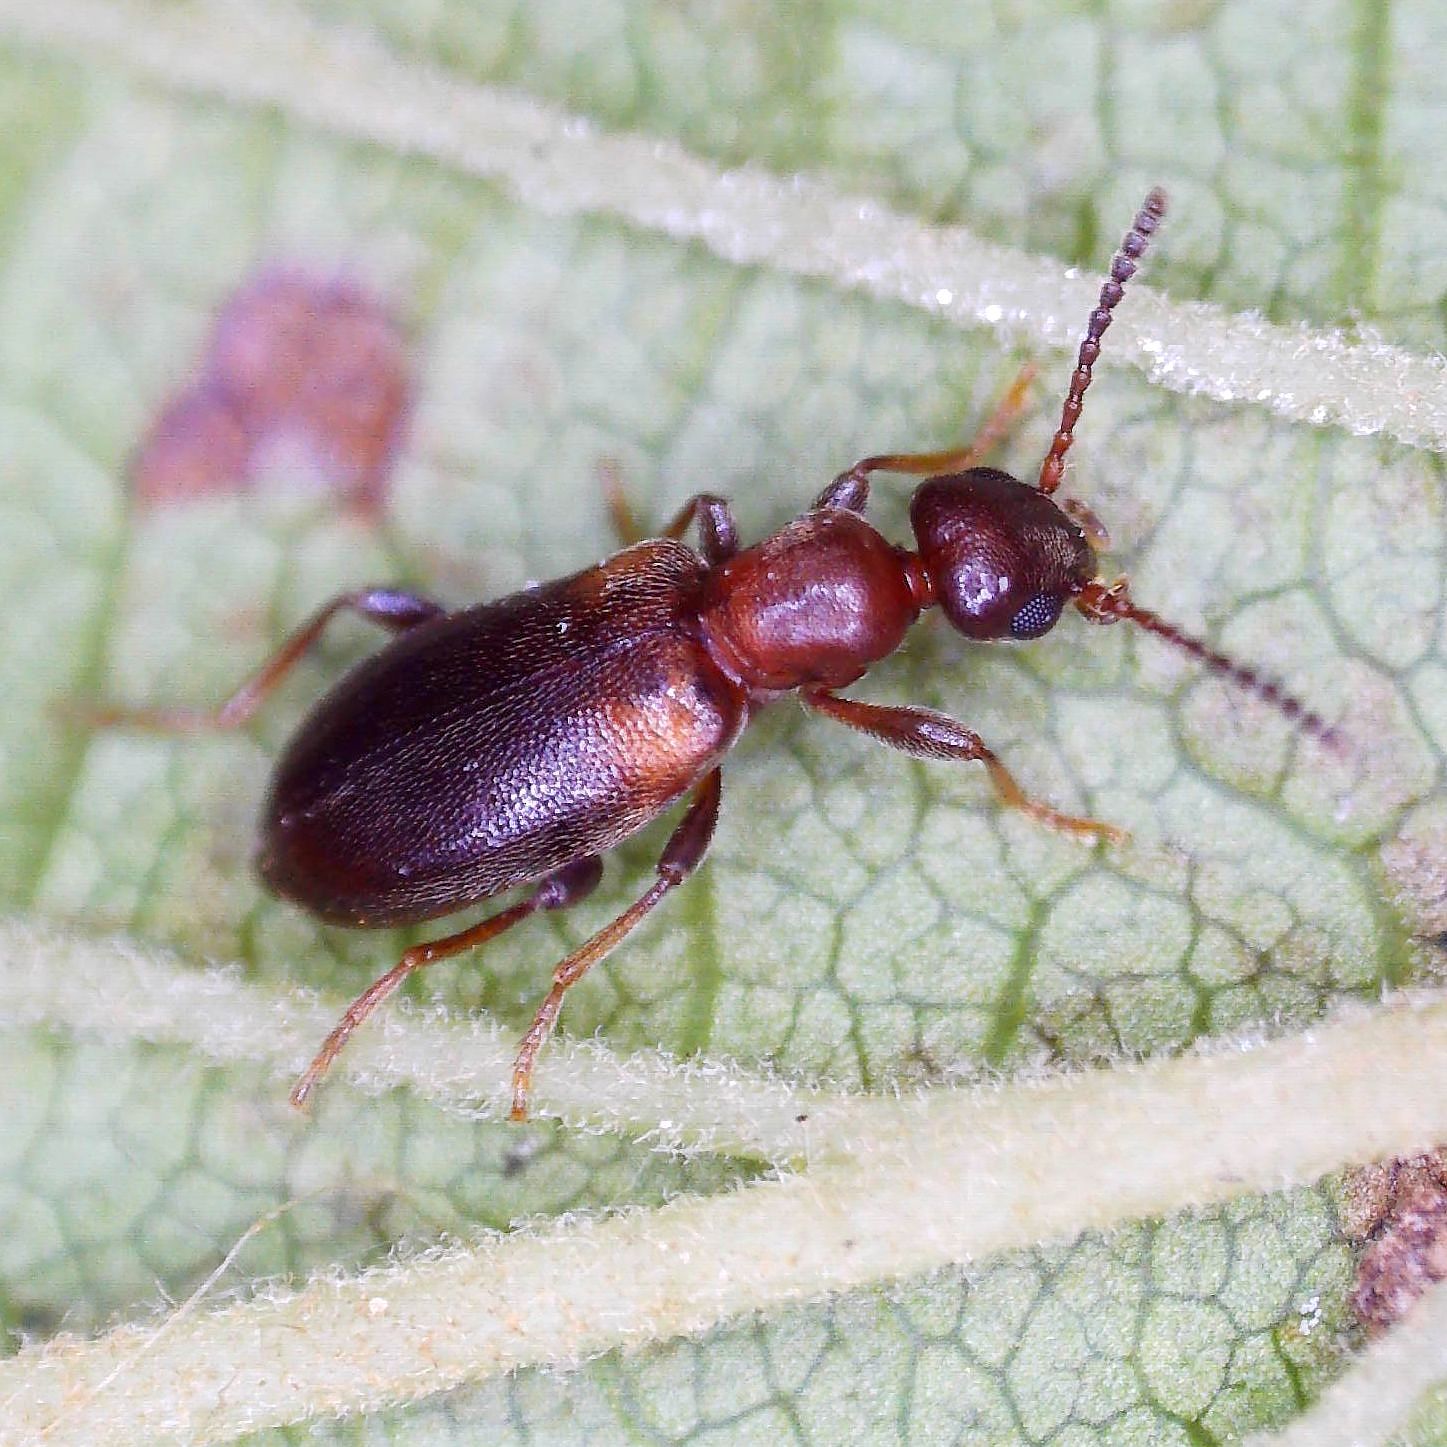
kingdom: Animalia
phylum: Arthropoda
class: Insecta
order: Coleoptera
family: Anthicidae
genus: Omonadus
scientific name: Omonadus formicarius
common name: Antlike flower beetle
